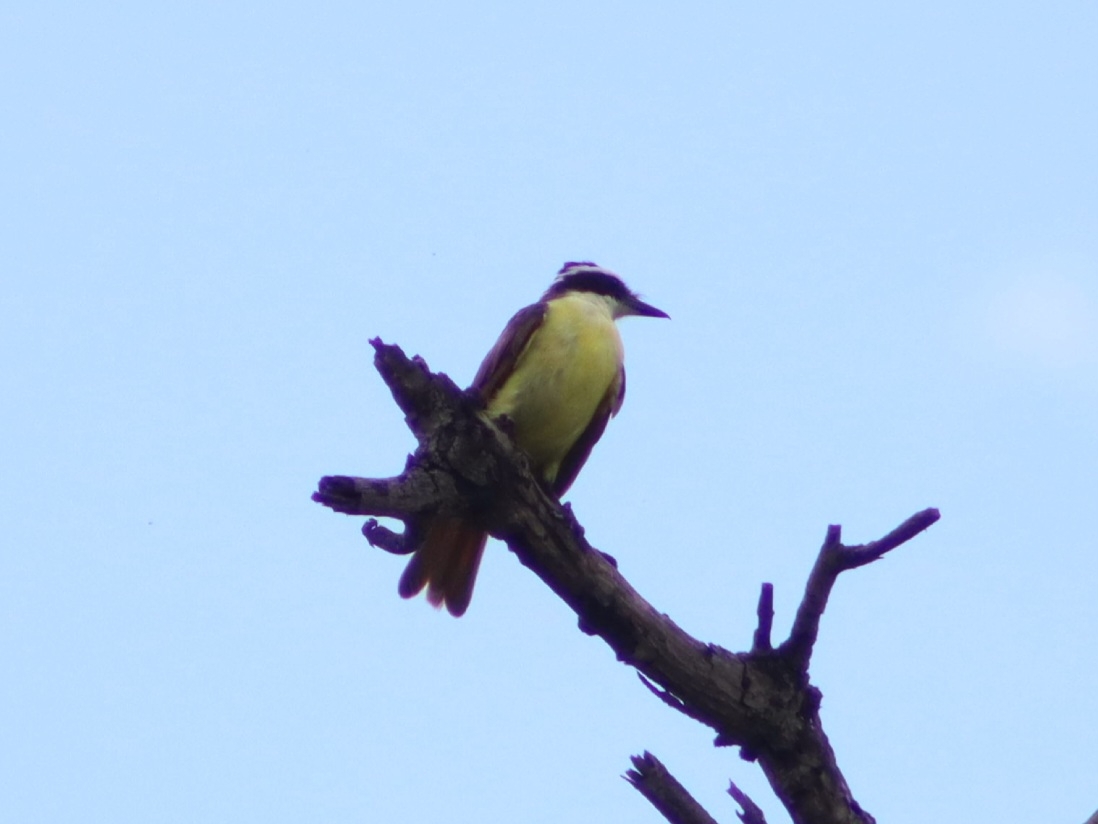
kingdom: Animalia
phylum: Chordata
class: Aves
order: Passeriformes
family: Tyrannidae
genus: Pitangus
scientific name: Pitangus sulphuratus
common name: Great kiskadee
